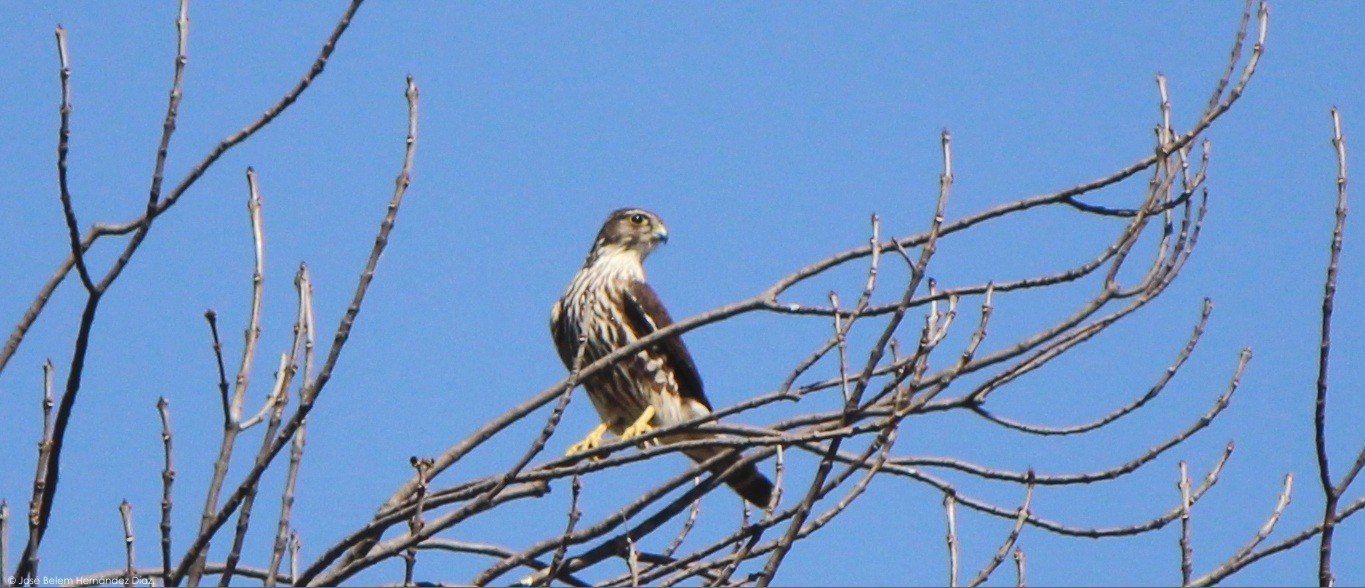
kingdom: Animalia
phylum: Chordata
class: Aves
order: Falconiformes
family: Falconidae
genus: Falco
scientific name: Falco columbarius
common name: Merlin
